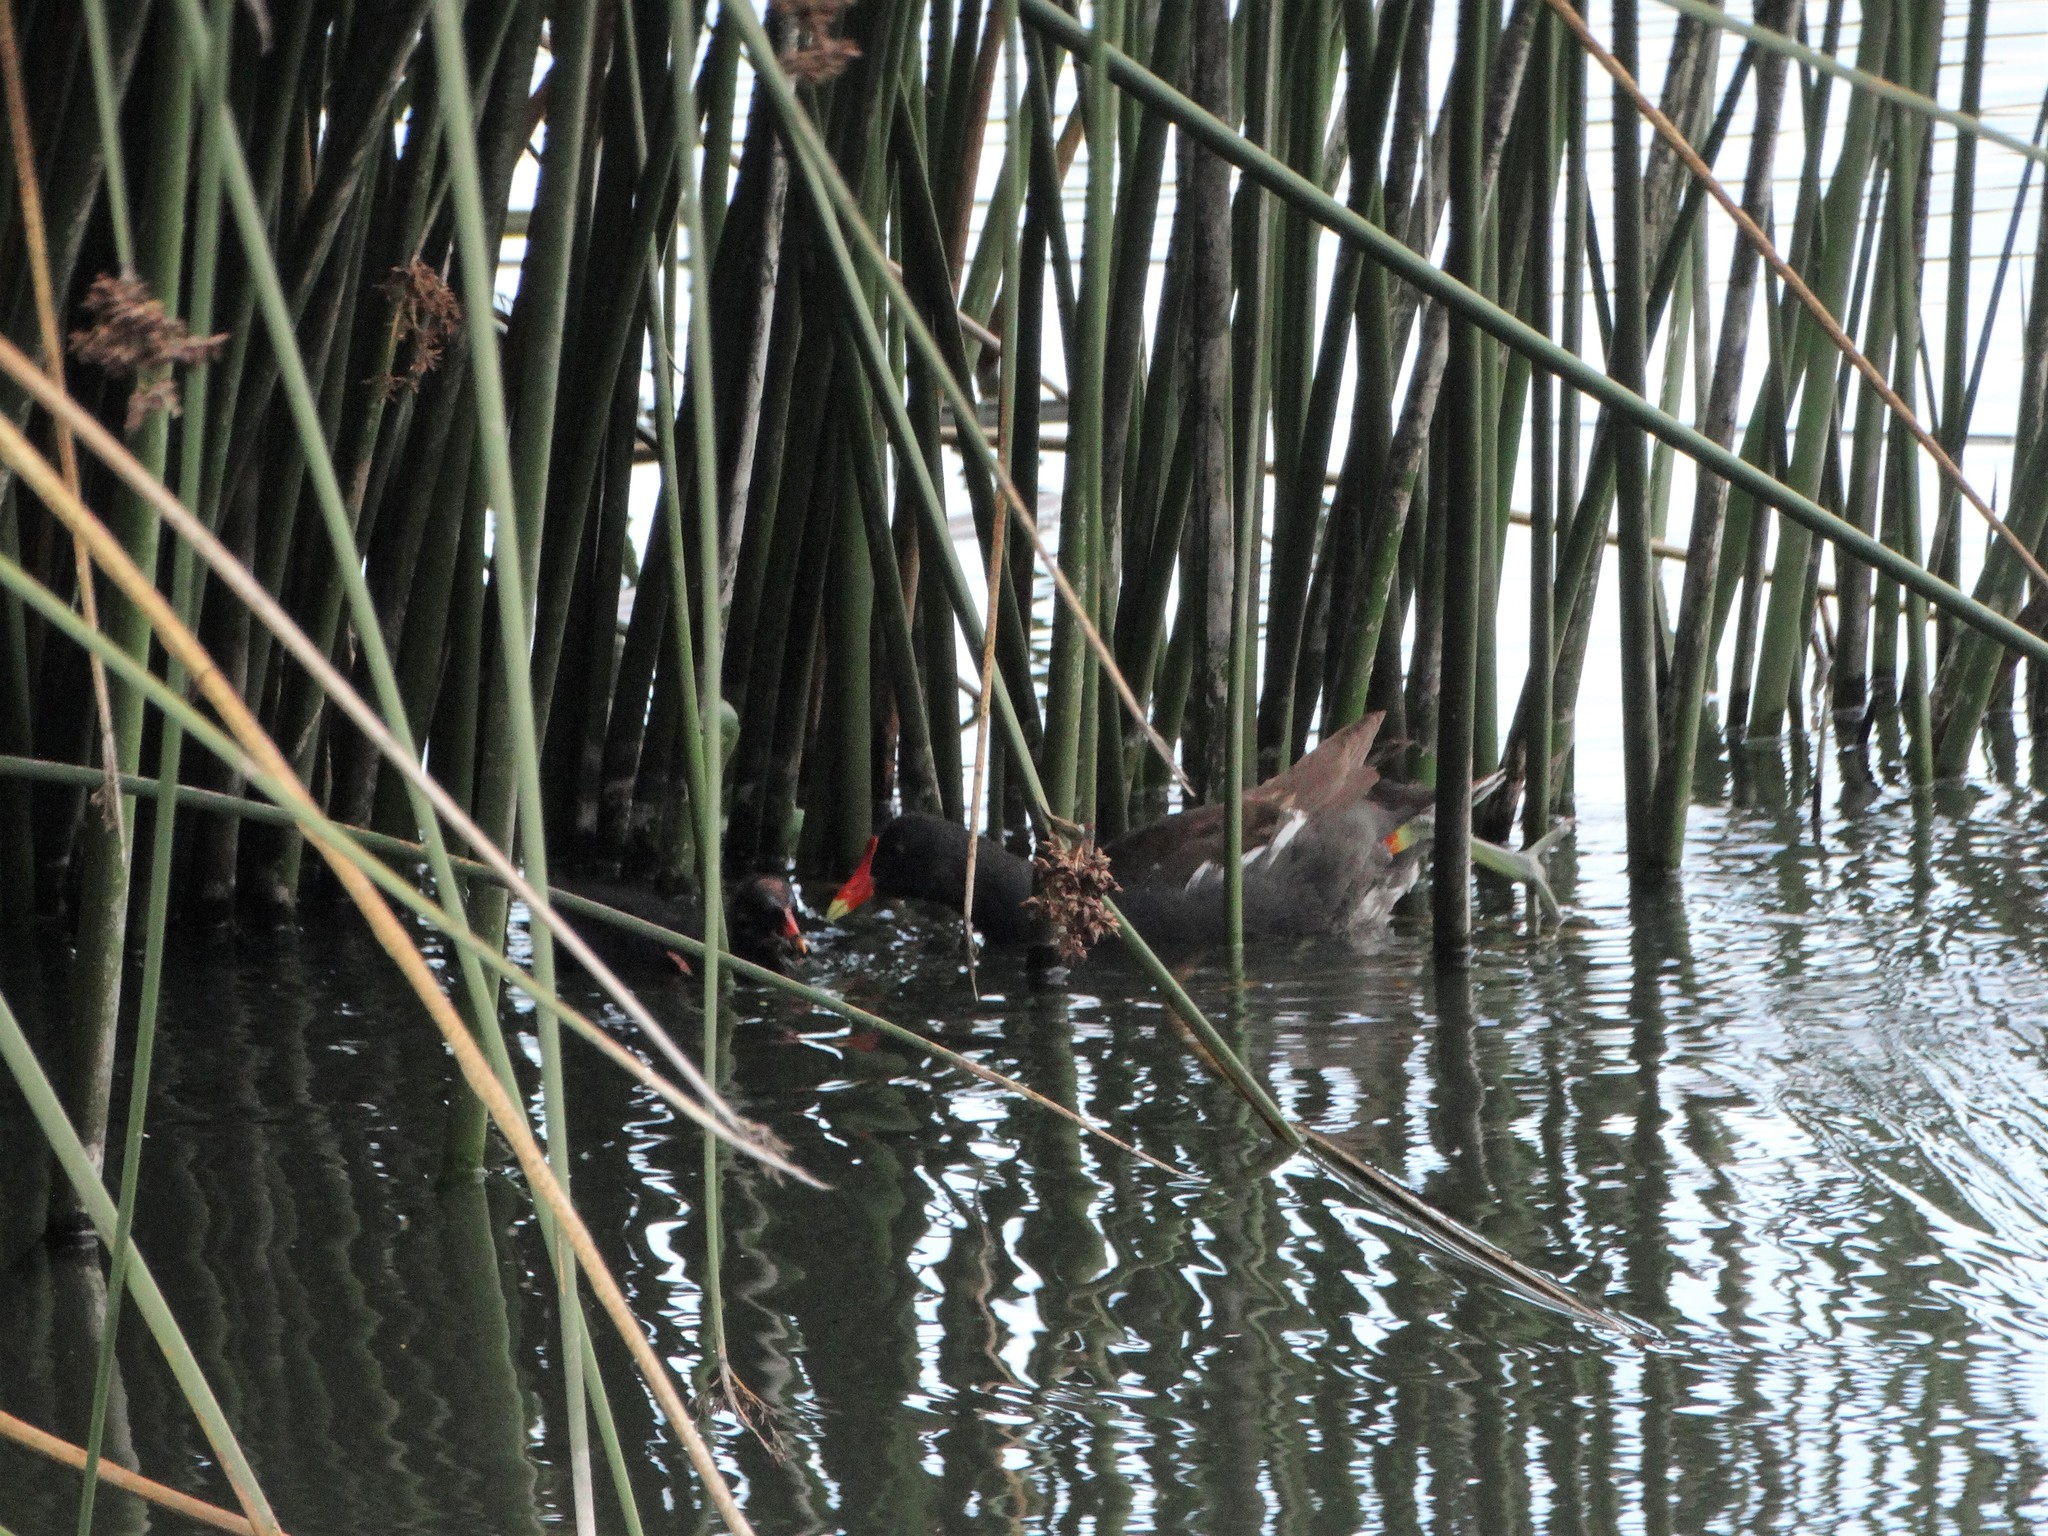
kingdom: Animalia
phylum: Chordata
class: Aves
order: Gruiformes
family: Rallidae
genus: Gallinula
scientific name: Gallinula chloropus
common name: Common moorhen
